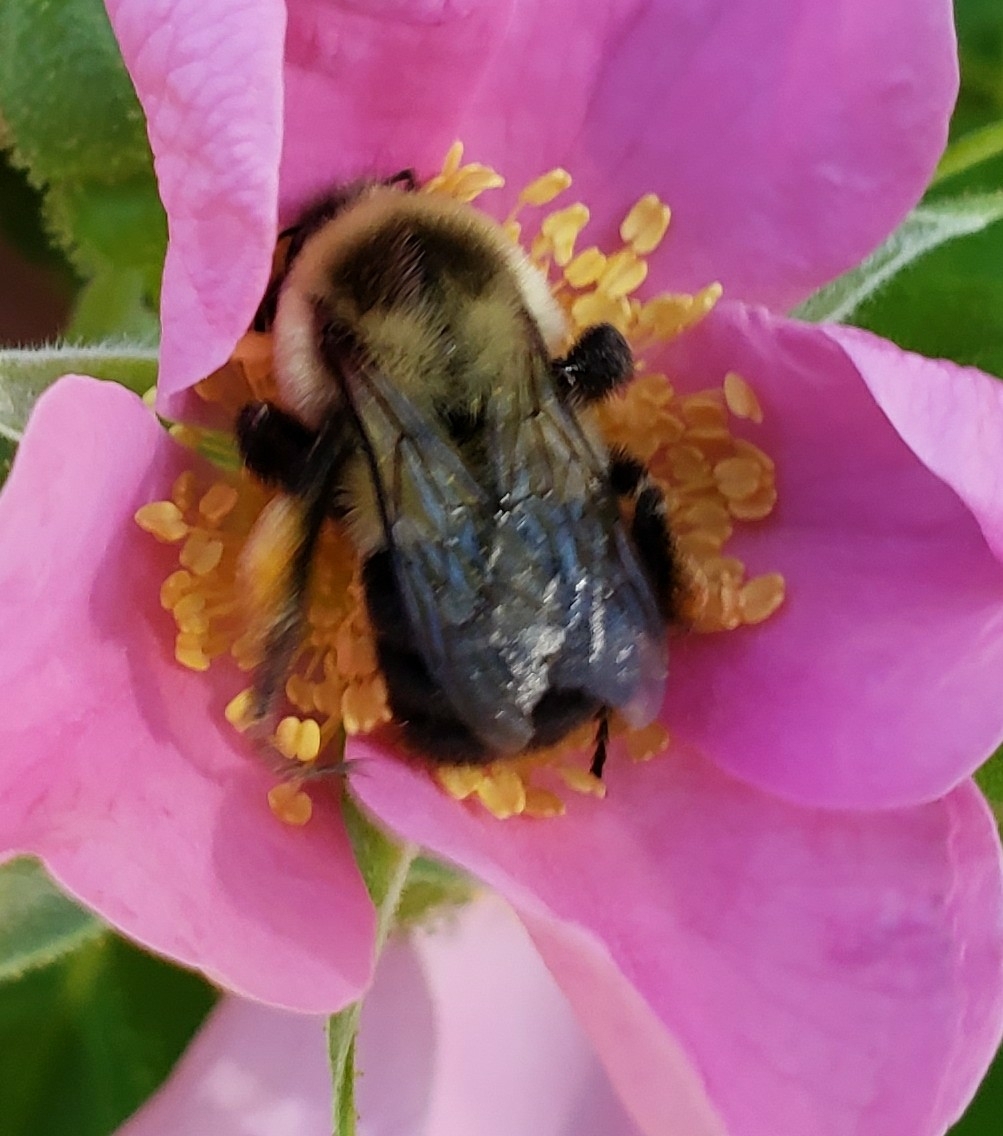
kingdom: Animalia
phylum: Arthropoda
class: Insecta
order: Hymenoptera
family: Apidae
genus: Bombus
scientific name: Bombus impatiens
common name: Common eastern bumble bee
